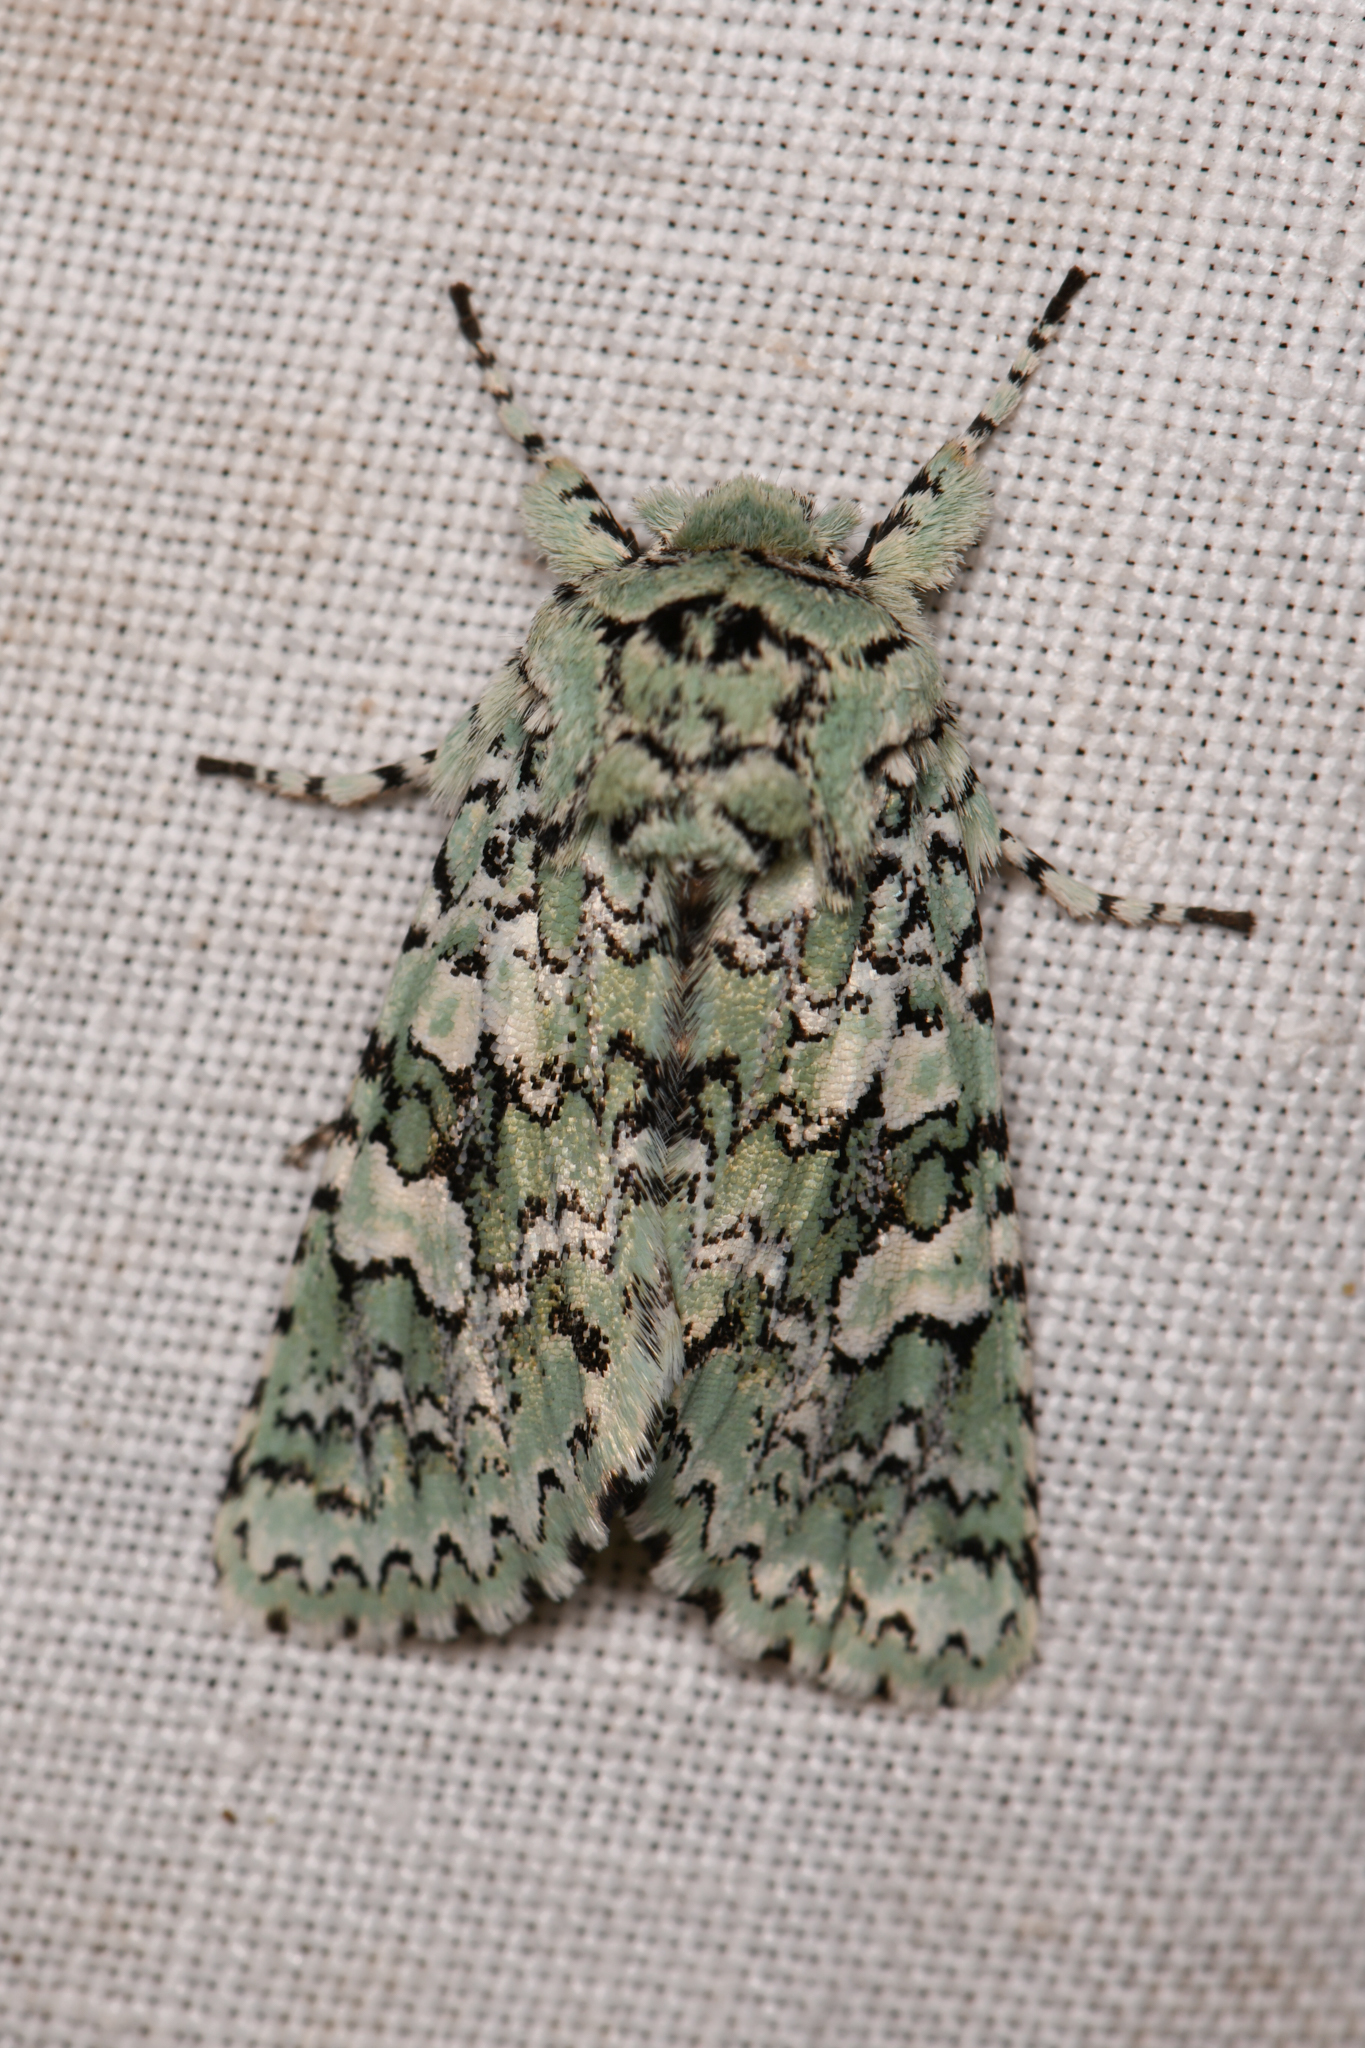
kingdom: Animalia
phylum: Arthropoda
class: Insecta
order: Lepidoptera
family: Noctuidae
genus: Feralia
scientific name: Feralia februalis
